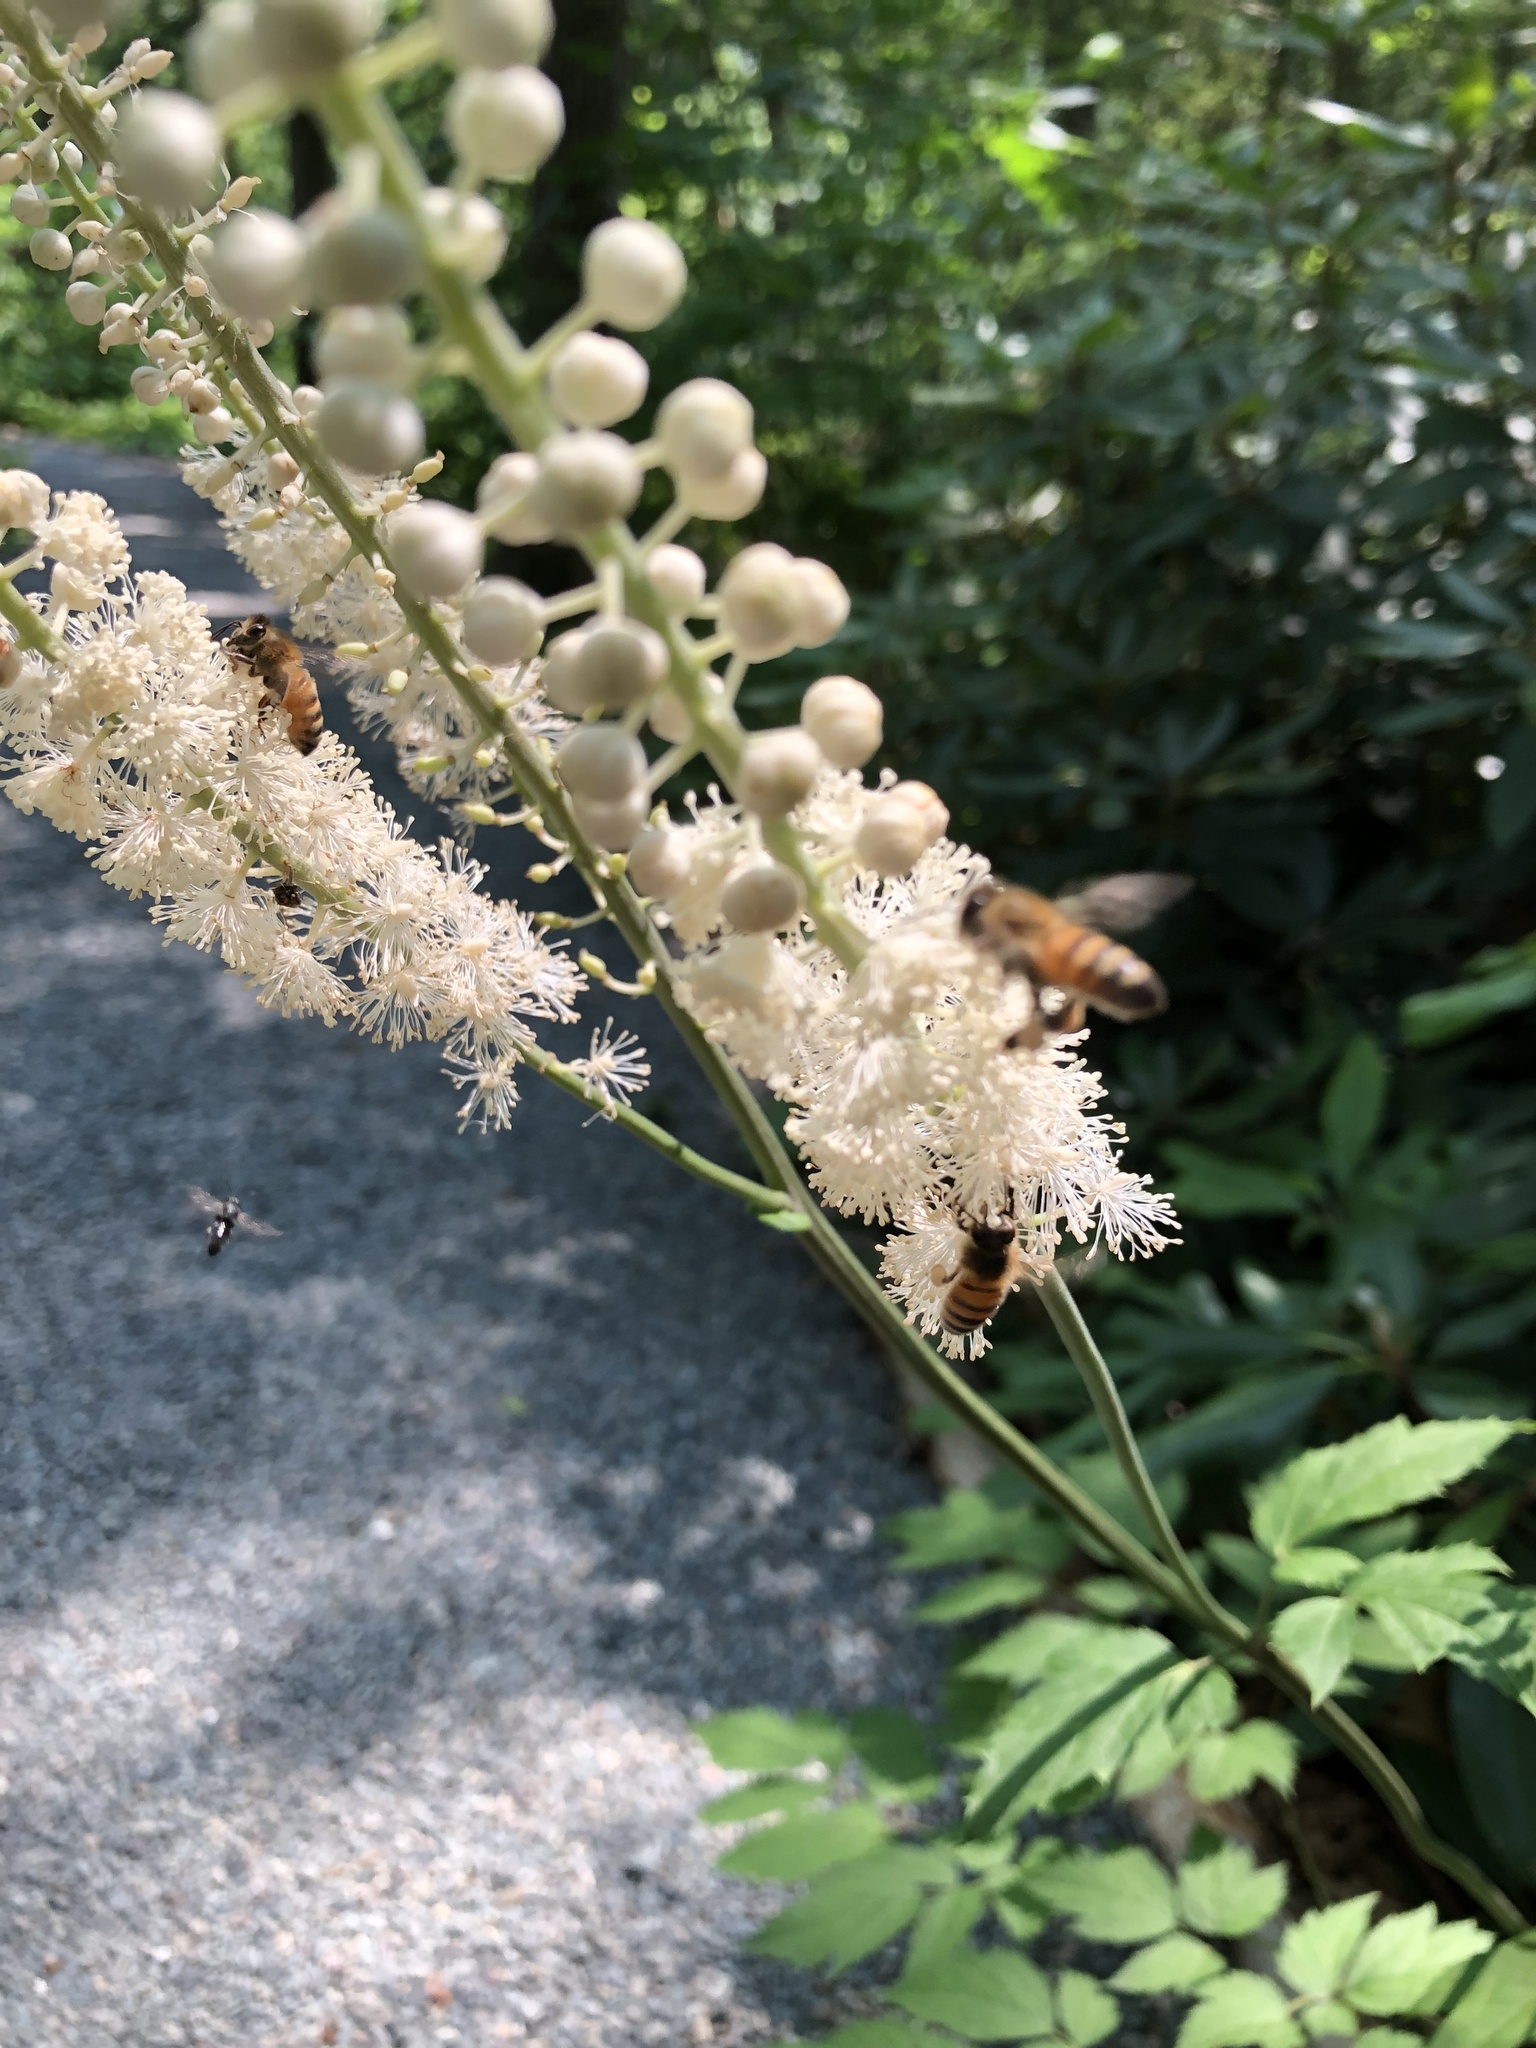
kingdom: Animalia
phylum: Arthropoda
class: Insecta
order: Hymenoptera
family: Apidae
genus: Apis
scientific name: Apis mellifera
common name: Honey bee
